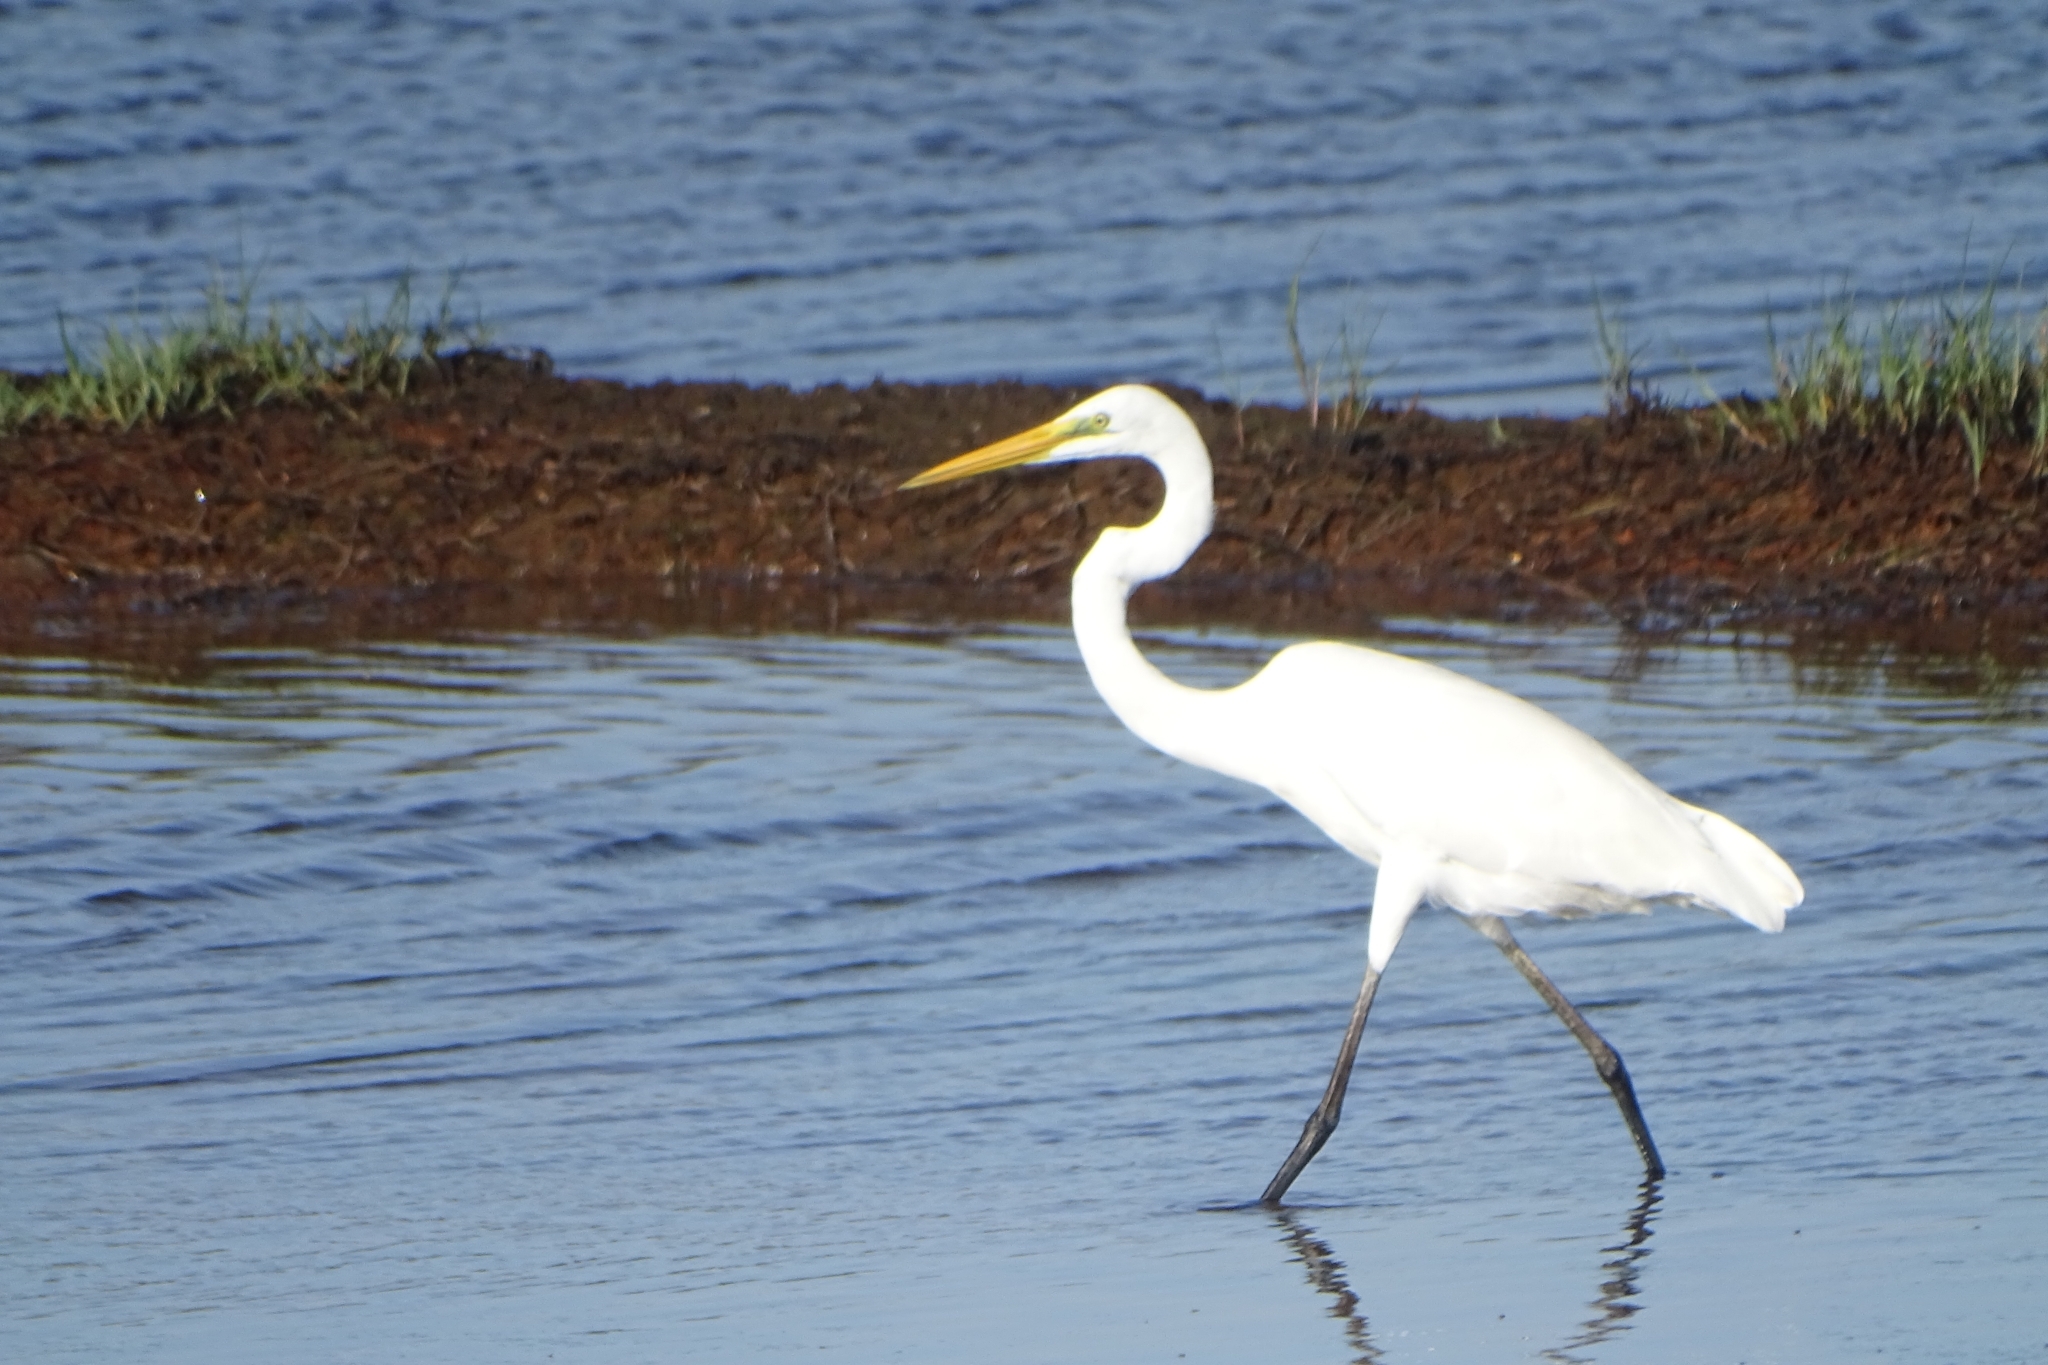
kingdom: Animalia
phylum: Chordata
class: Aves
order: Pelecaniformes
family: Ardeidae
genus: Ardea
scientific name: Ardea alba
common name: Great egret
